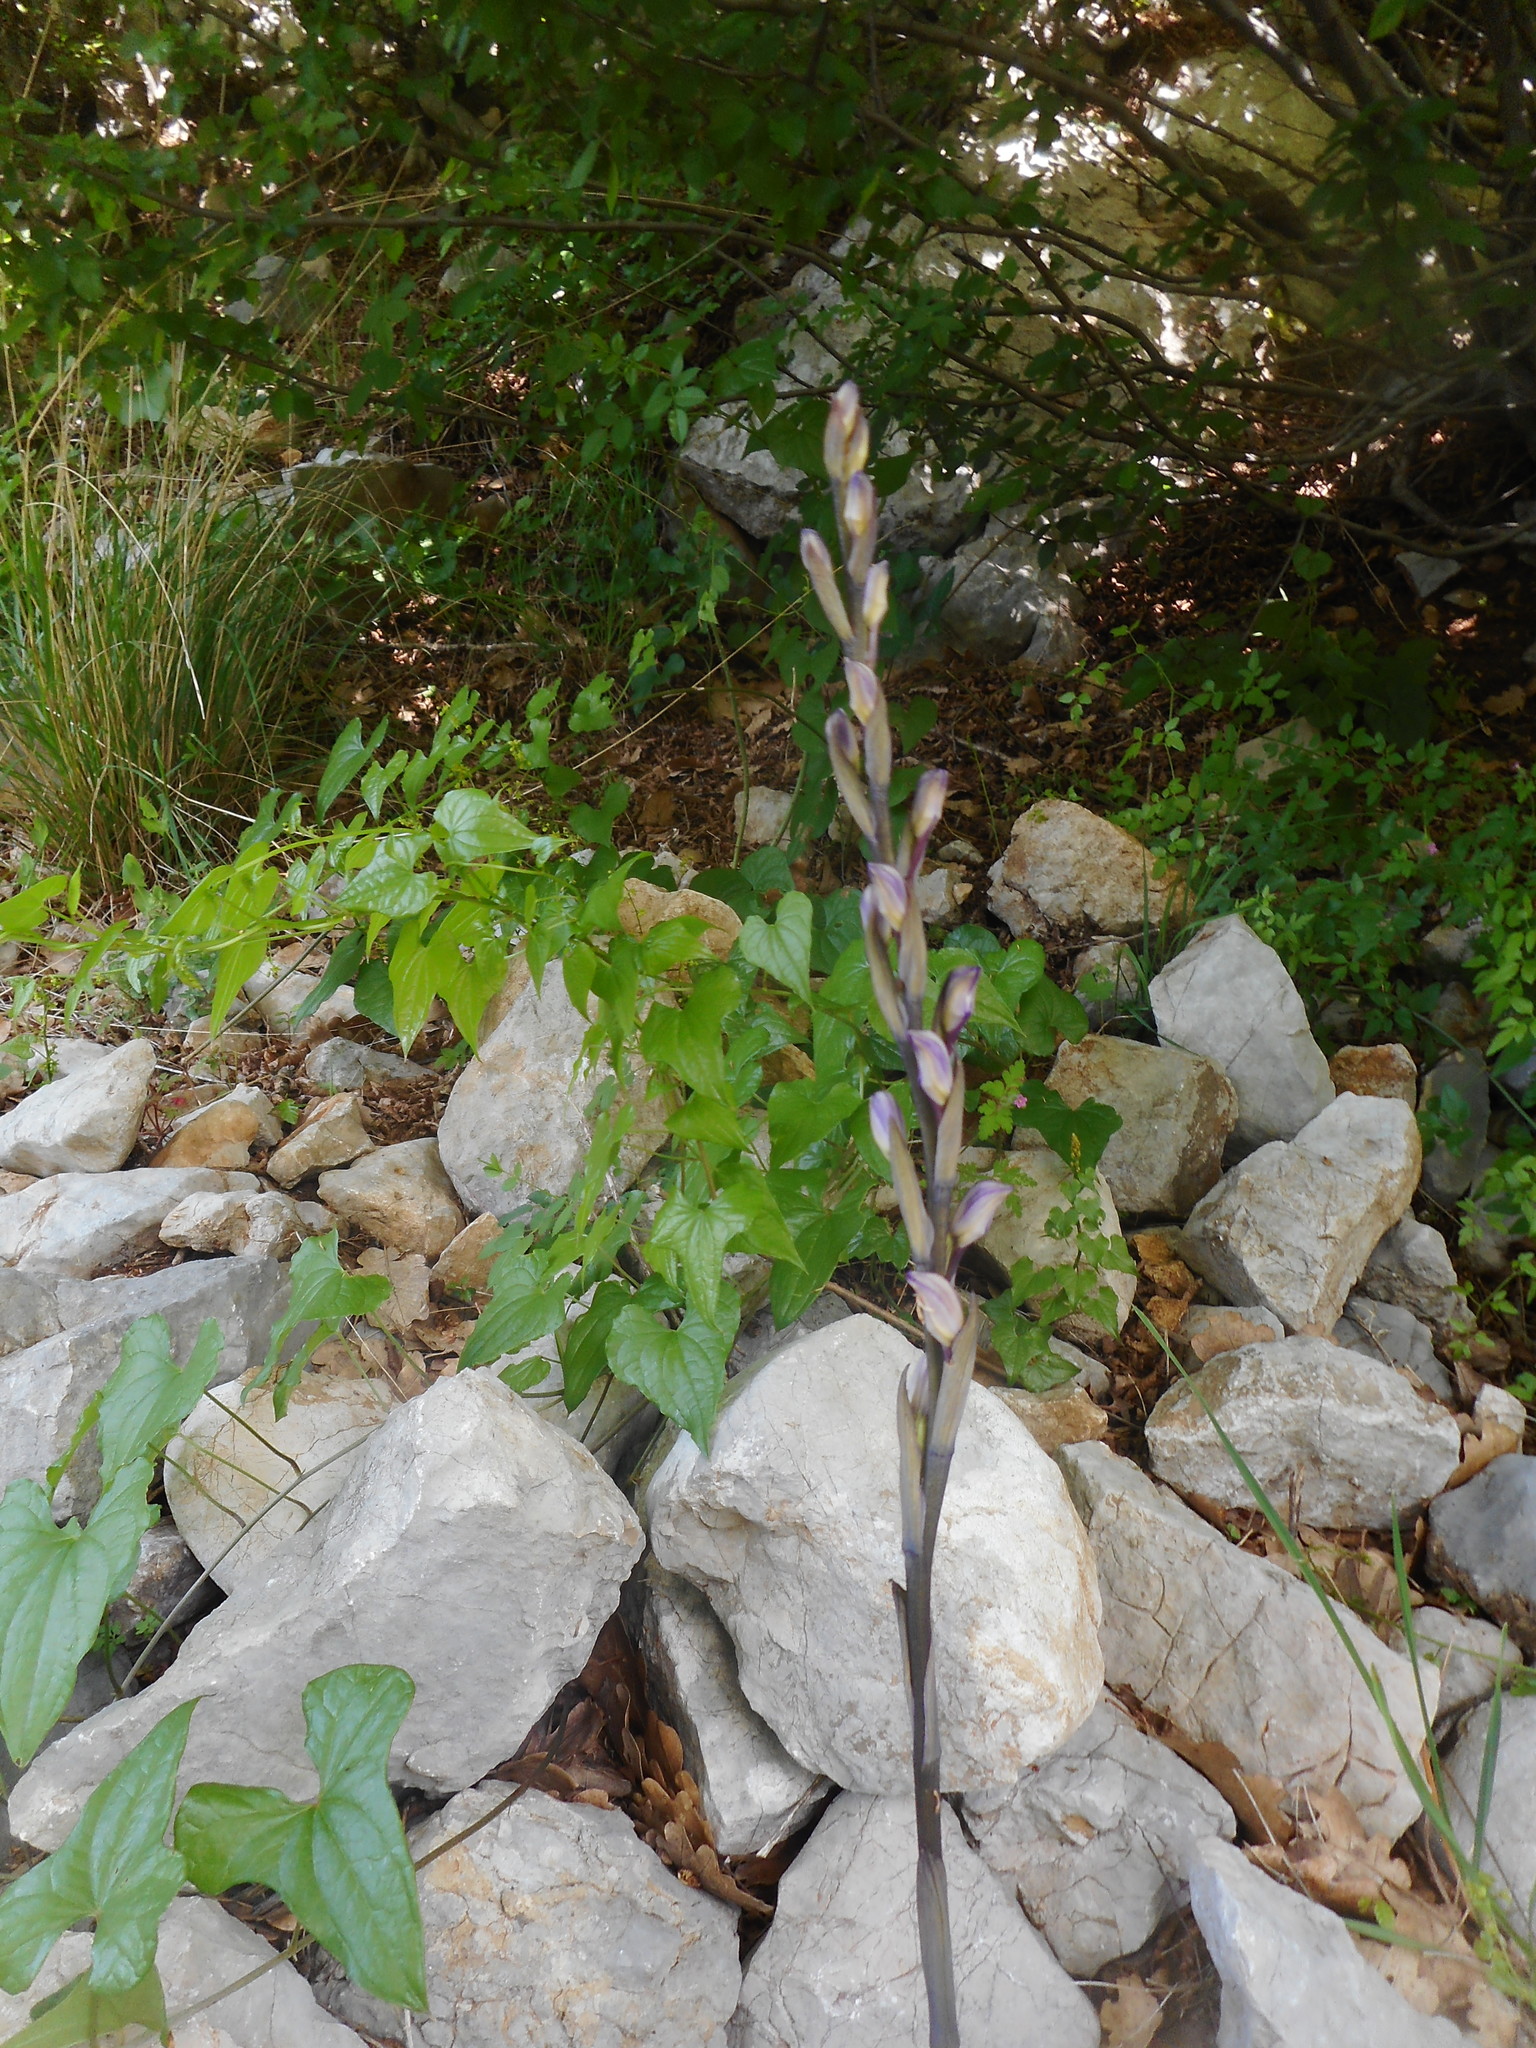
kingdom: Plantae
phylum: Tracheophyta
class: Liliopsida
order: Asparagales
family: Orchidaceae
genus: Limodorum
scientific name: Limodorum abortivum
